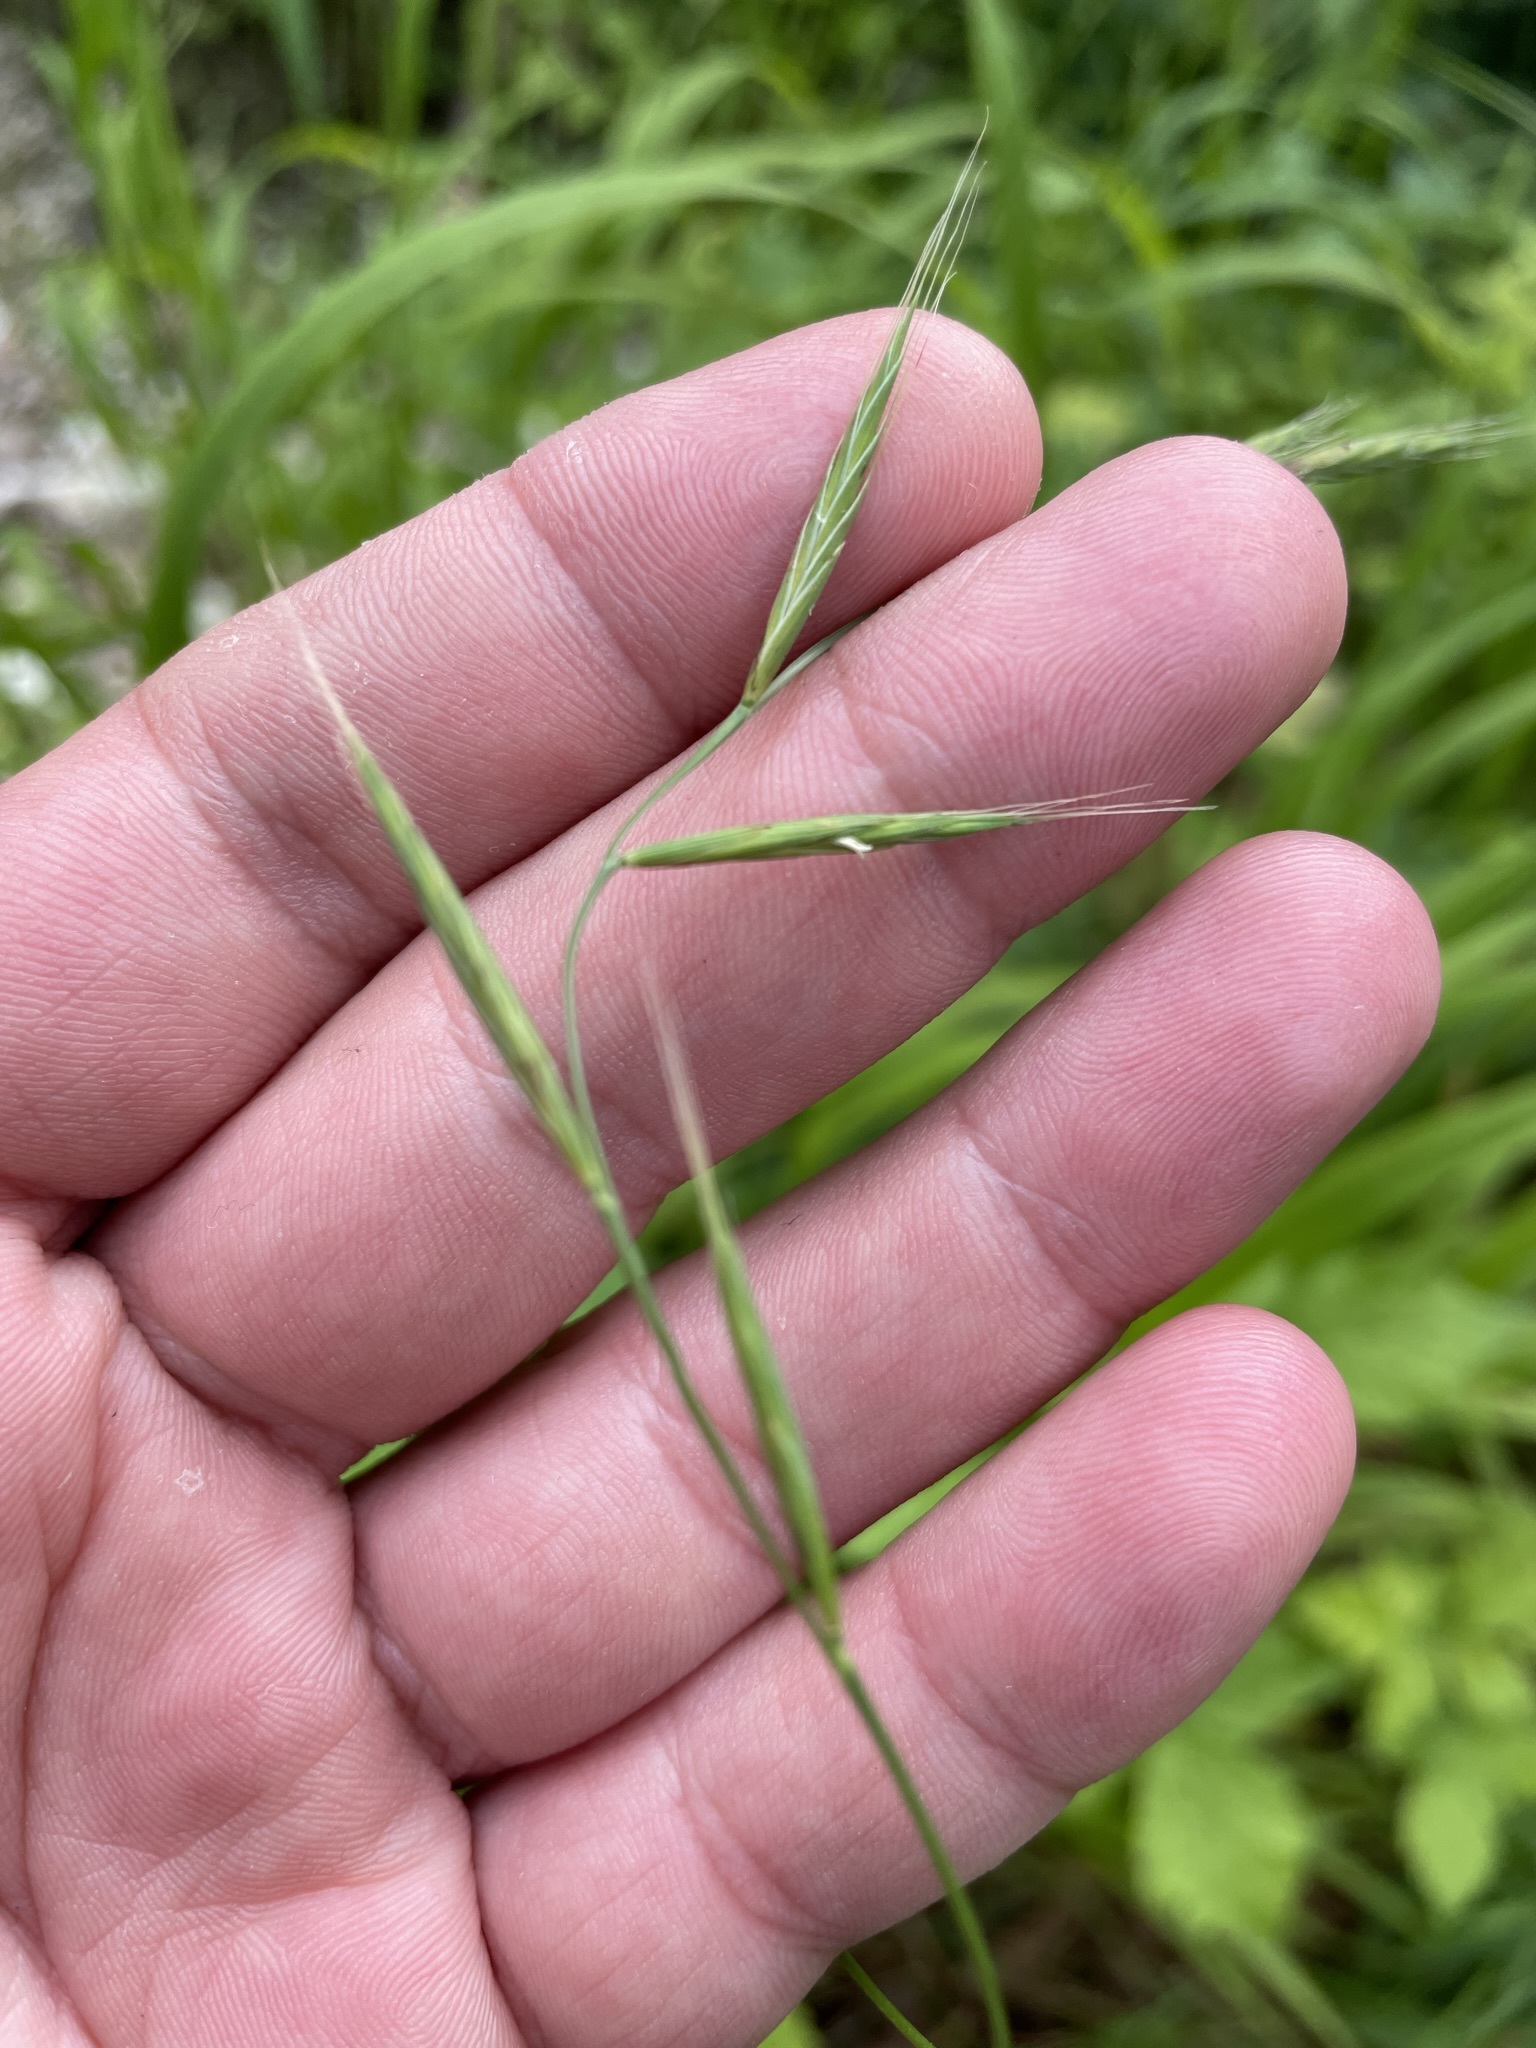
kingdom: Plantae
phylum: Tracheophyta
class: Liliopsida
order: Poales
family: Poaceae
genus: Brachypodium
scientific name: Brachypodium sylvaticum
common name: False-brome
